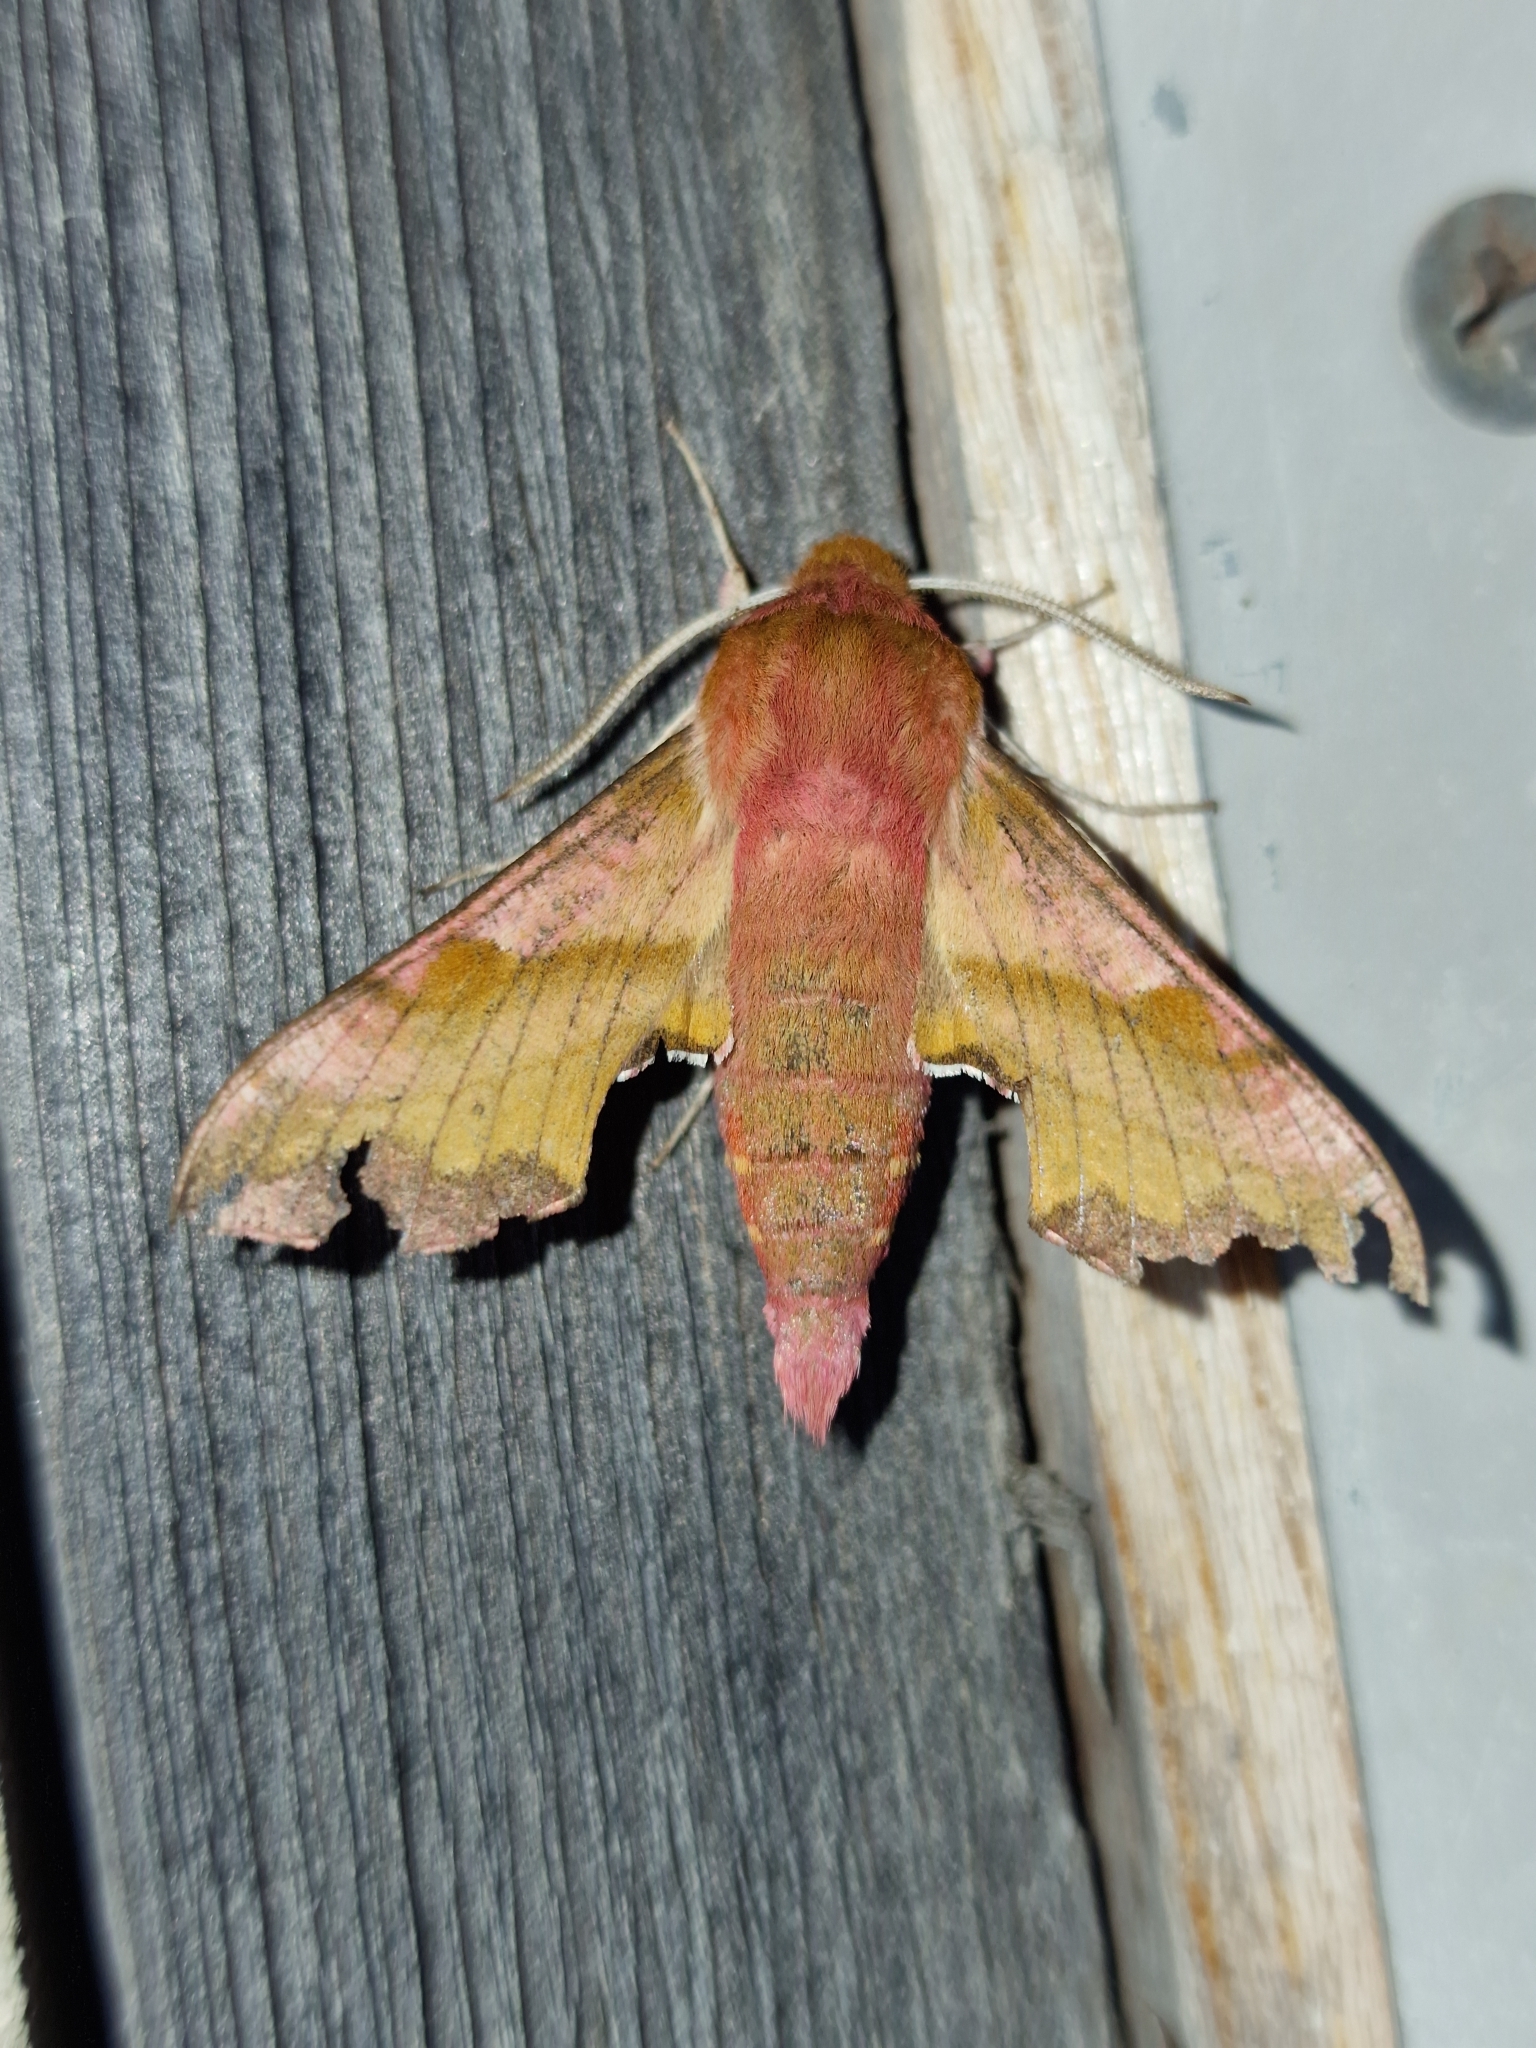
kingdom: Animalia
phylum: Arthropoda
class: Insecta
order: Lepidoptera
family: Sphingidae
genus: Deilephila
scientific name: Deilephila porcellus
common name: Small elephant hawk-moth
